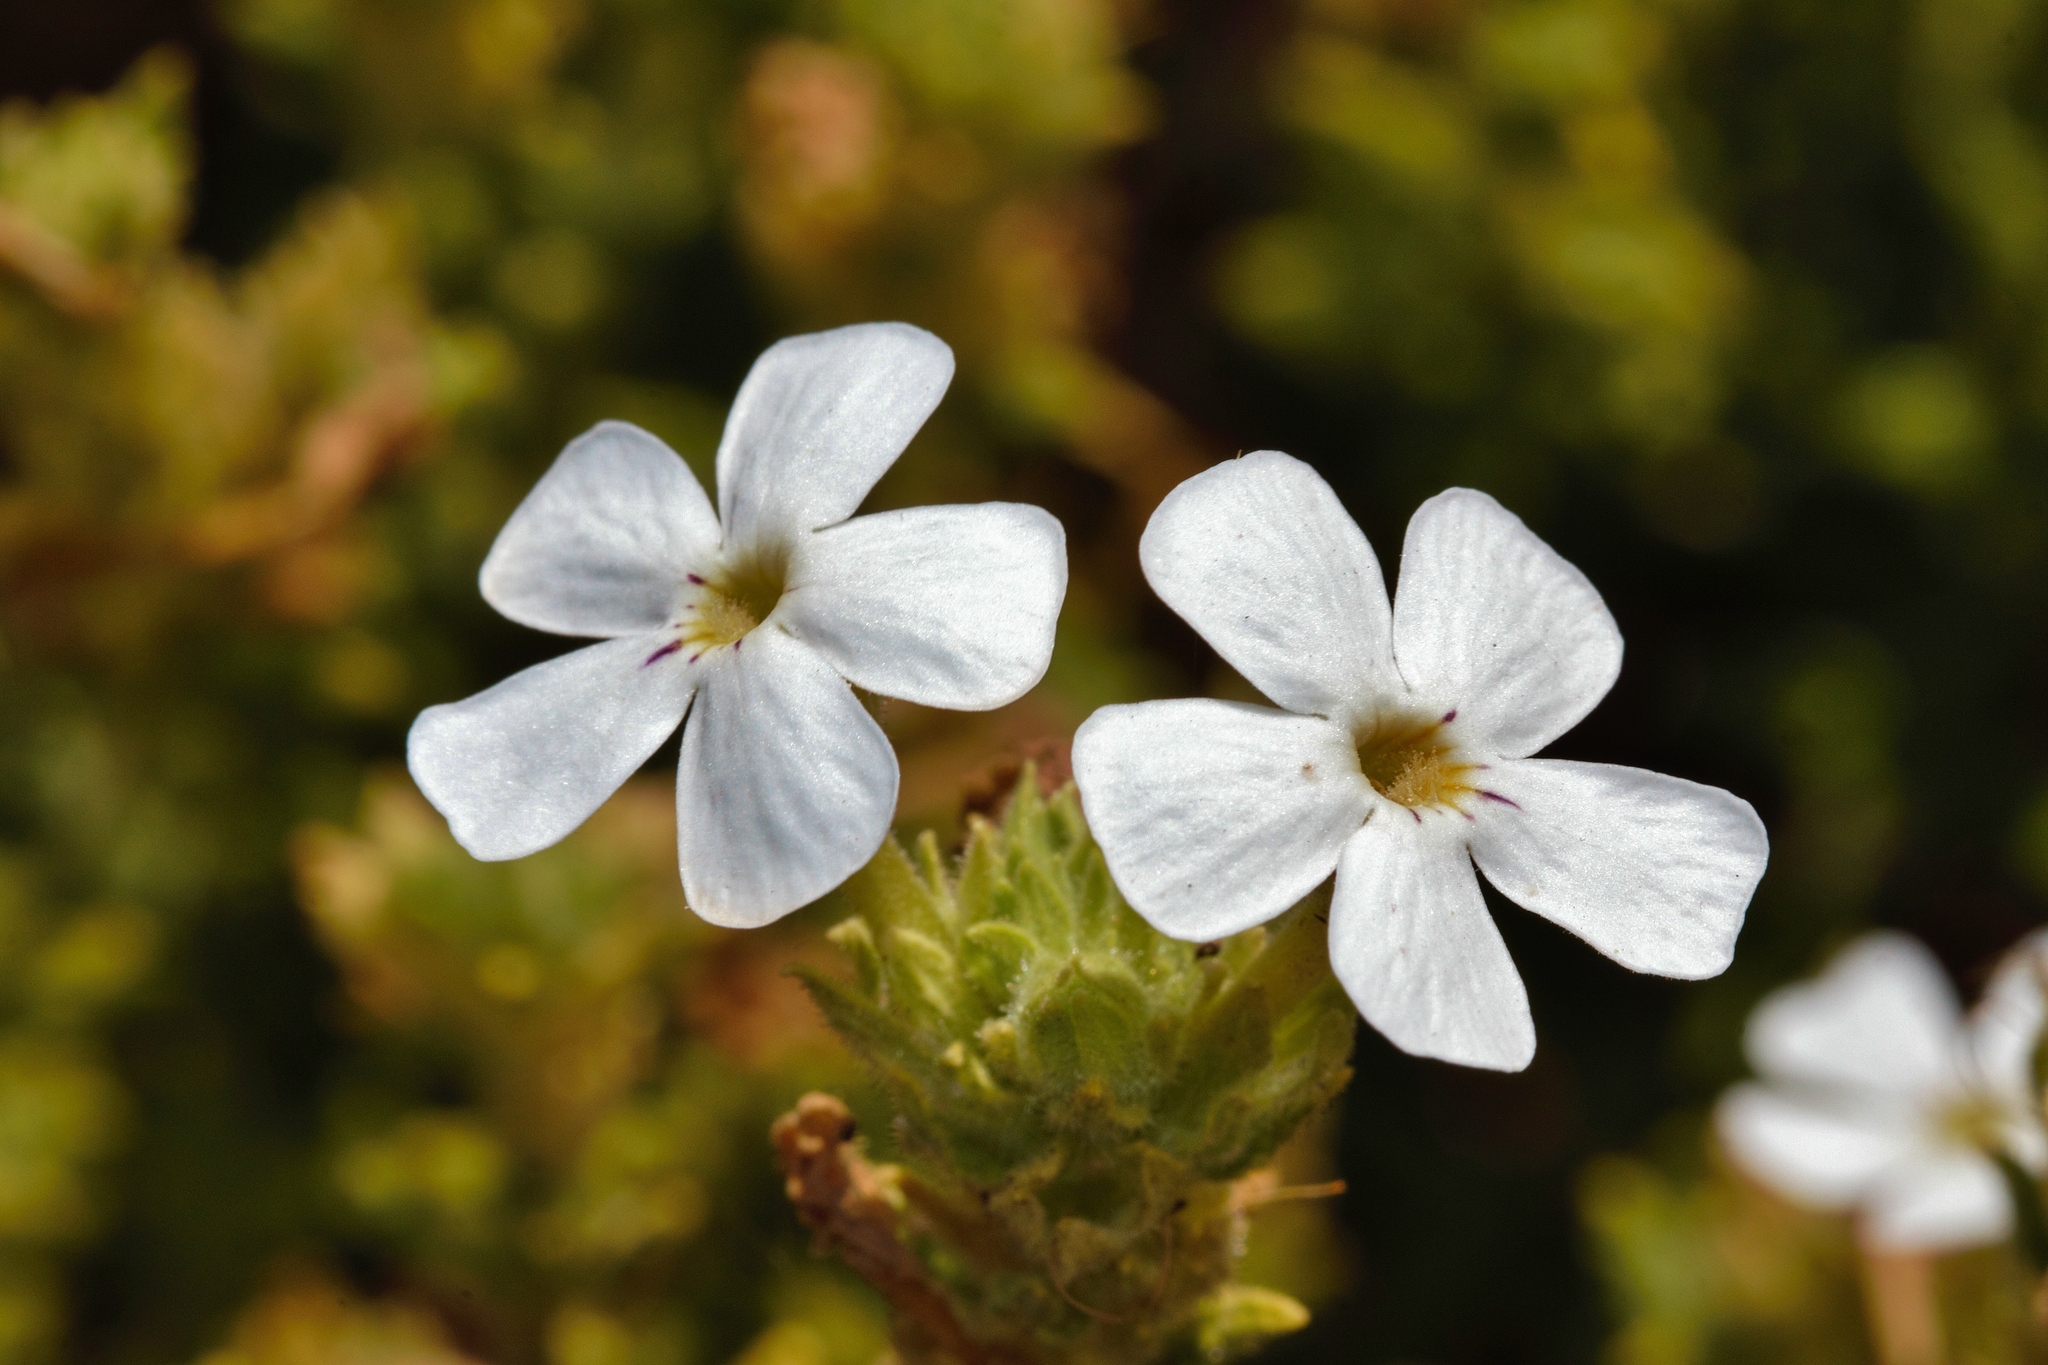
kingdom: Plantae
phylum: Tracheophyta
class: Magnoliopsida
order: Lamiales
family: Scrophulariaceae
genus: Jamesbrittenia
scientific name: Jamesbrittenia fodina
